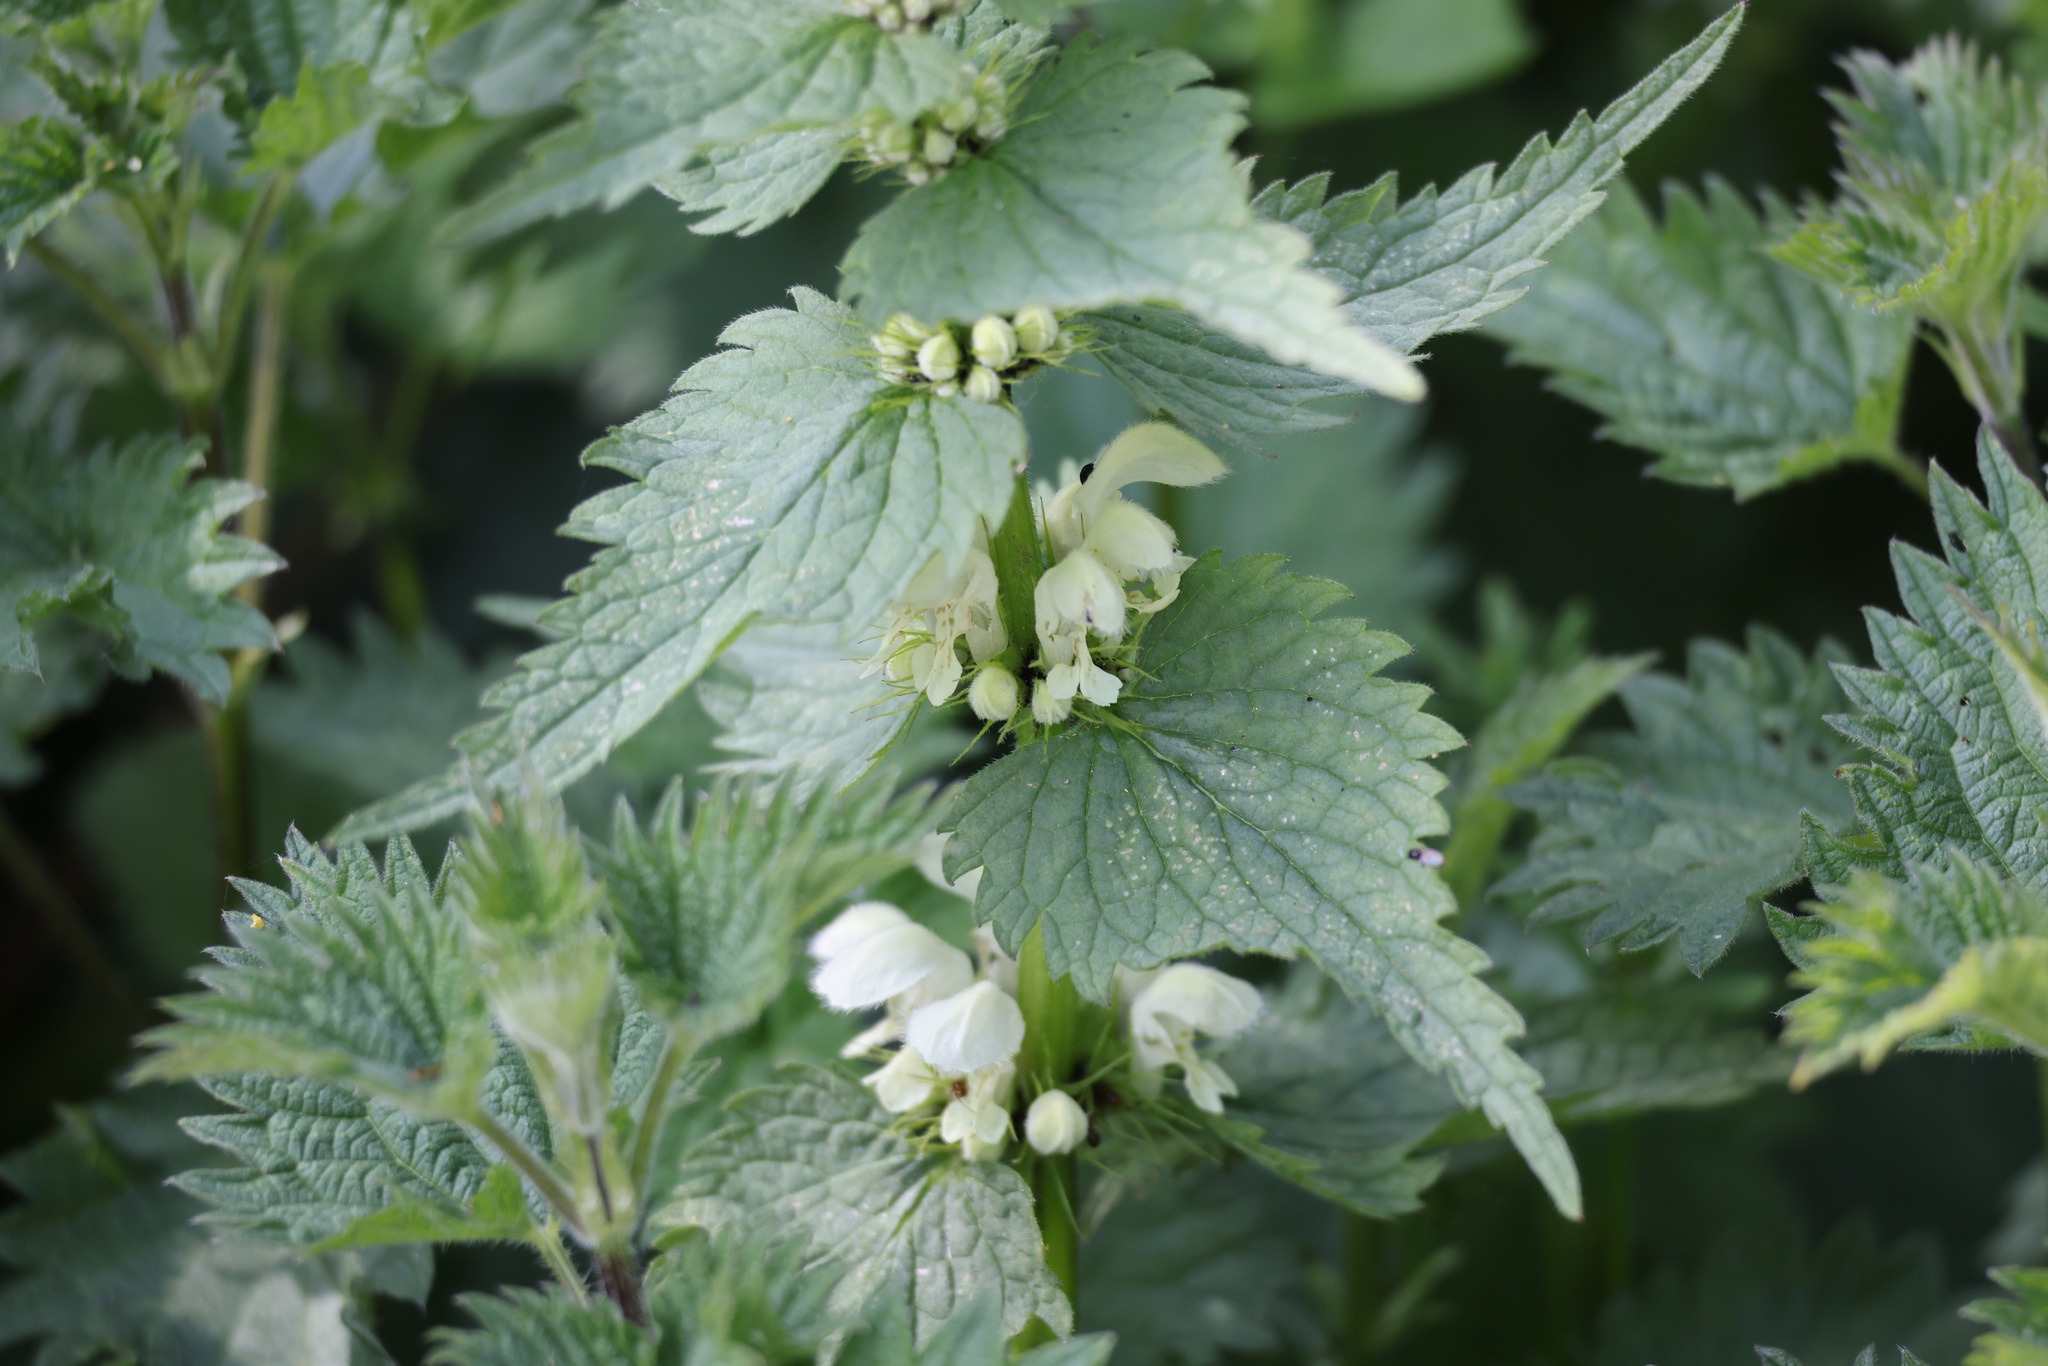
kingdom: Plantae
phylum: Tracheophyta
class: Magnoliopsida
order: Lamiales
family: Lamiaceae
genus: Lamium
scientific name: Lamium album
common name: White dead-nettle
